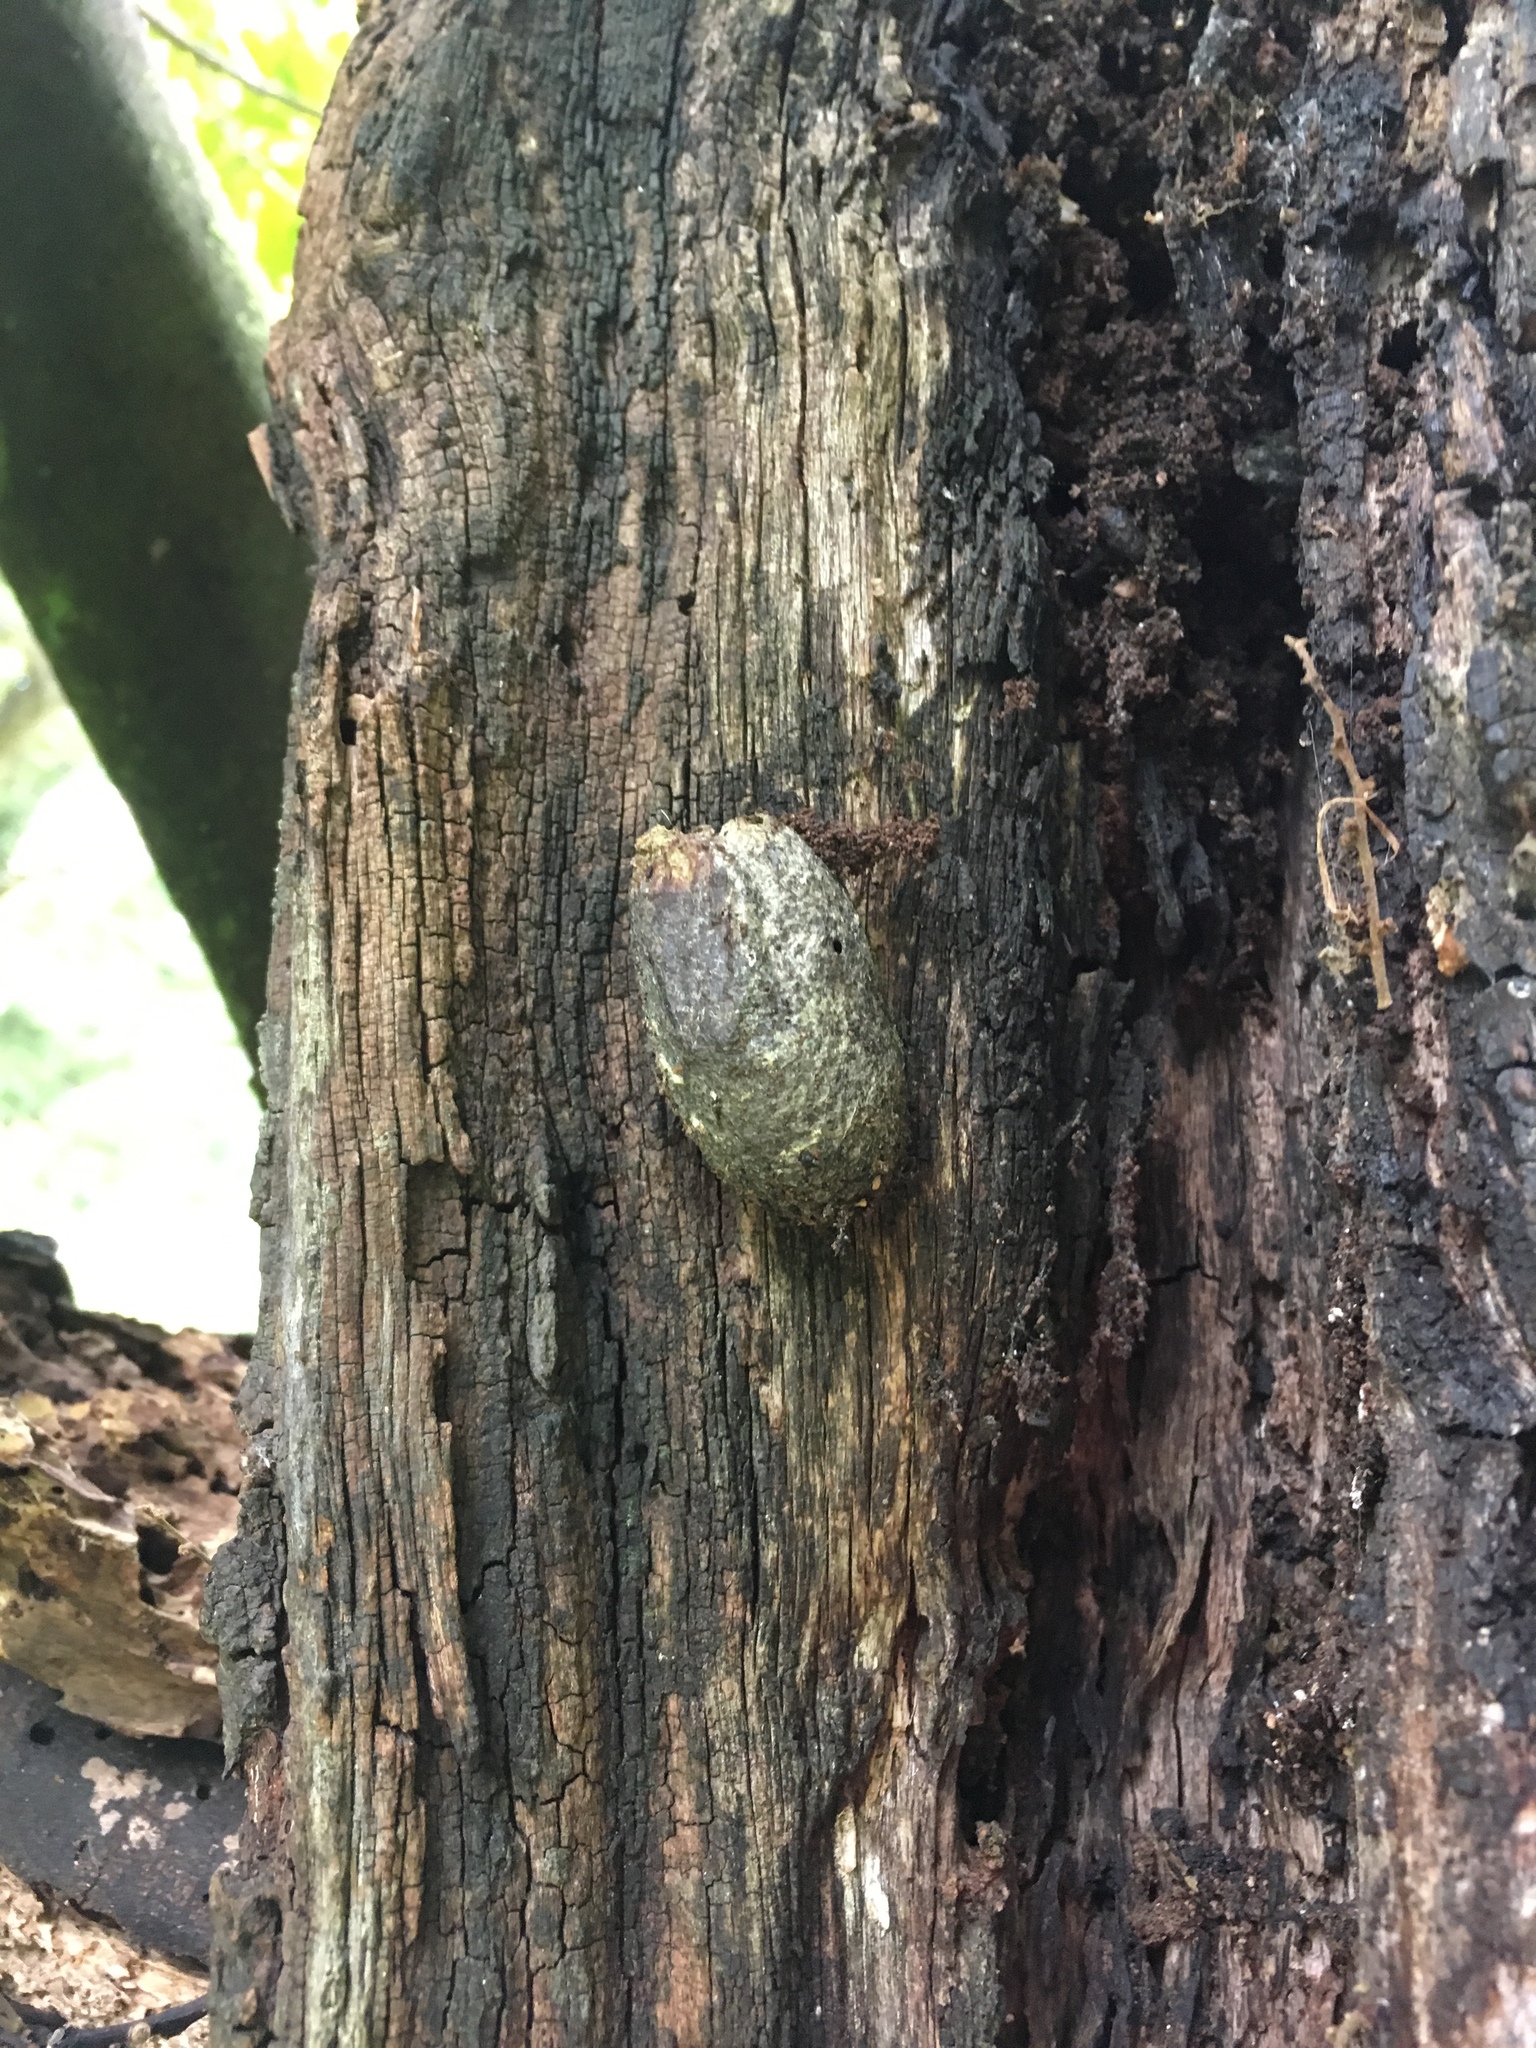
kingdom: Animalia
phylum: Arthropoda
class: Insecta
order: Lepidoptera
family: Saturniidae
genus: Opodiphthera
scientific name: Opodiphthera
